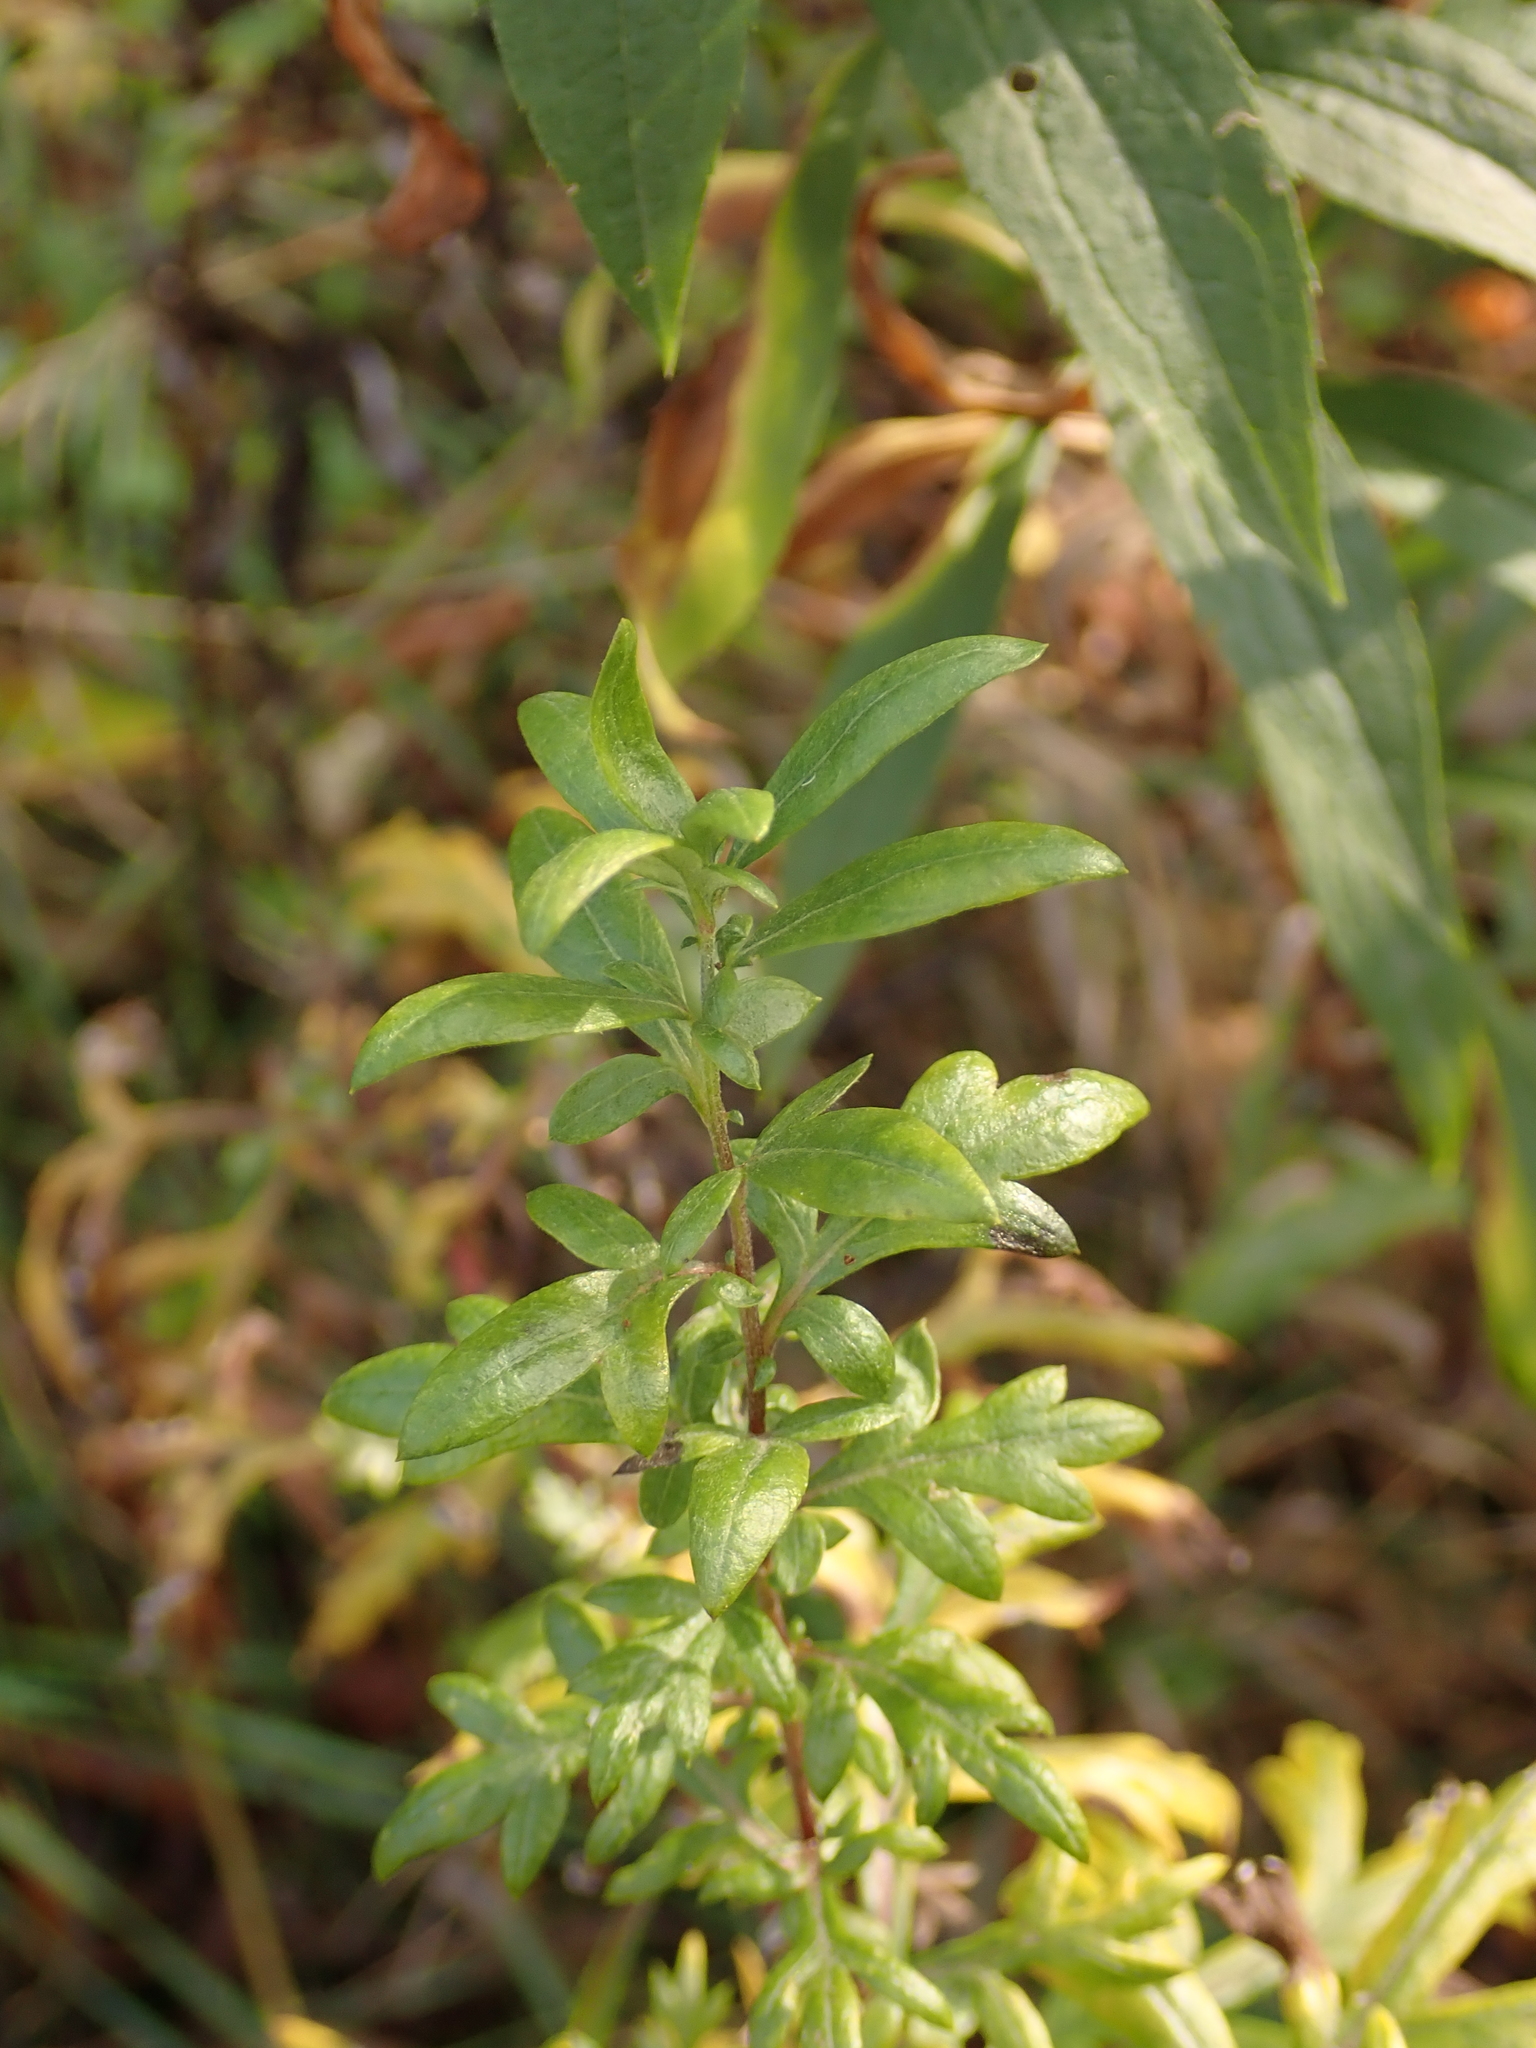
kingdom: Plantae
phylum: Tracheophyta
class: Magnoliopsida
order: Asterales
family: Asteraceae
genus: Artemisia
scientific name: Artemisia vulgaris
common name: Mugwort
